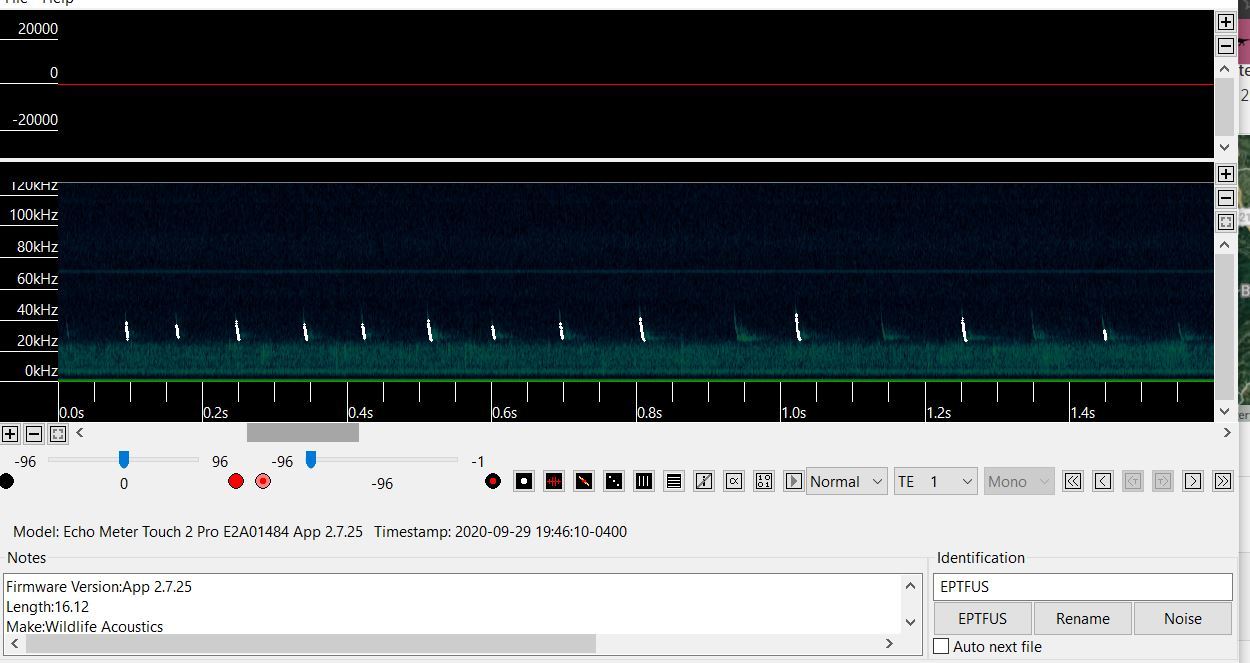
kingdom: Animalia
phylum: Chordata
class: Mammalia
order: Chiroptera
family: Vespertilionidae
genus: Eptesicus
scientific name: Eptesicus fuscus
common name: Big brown bat
